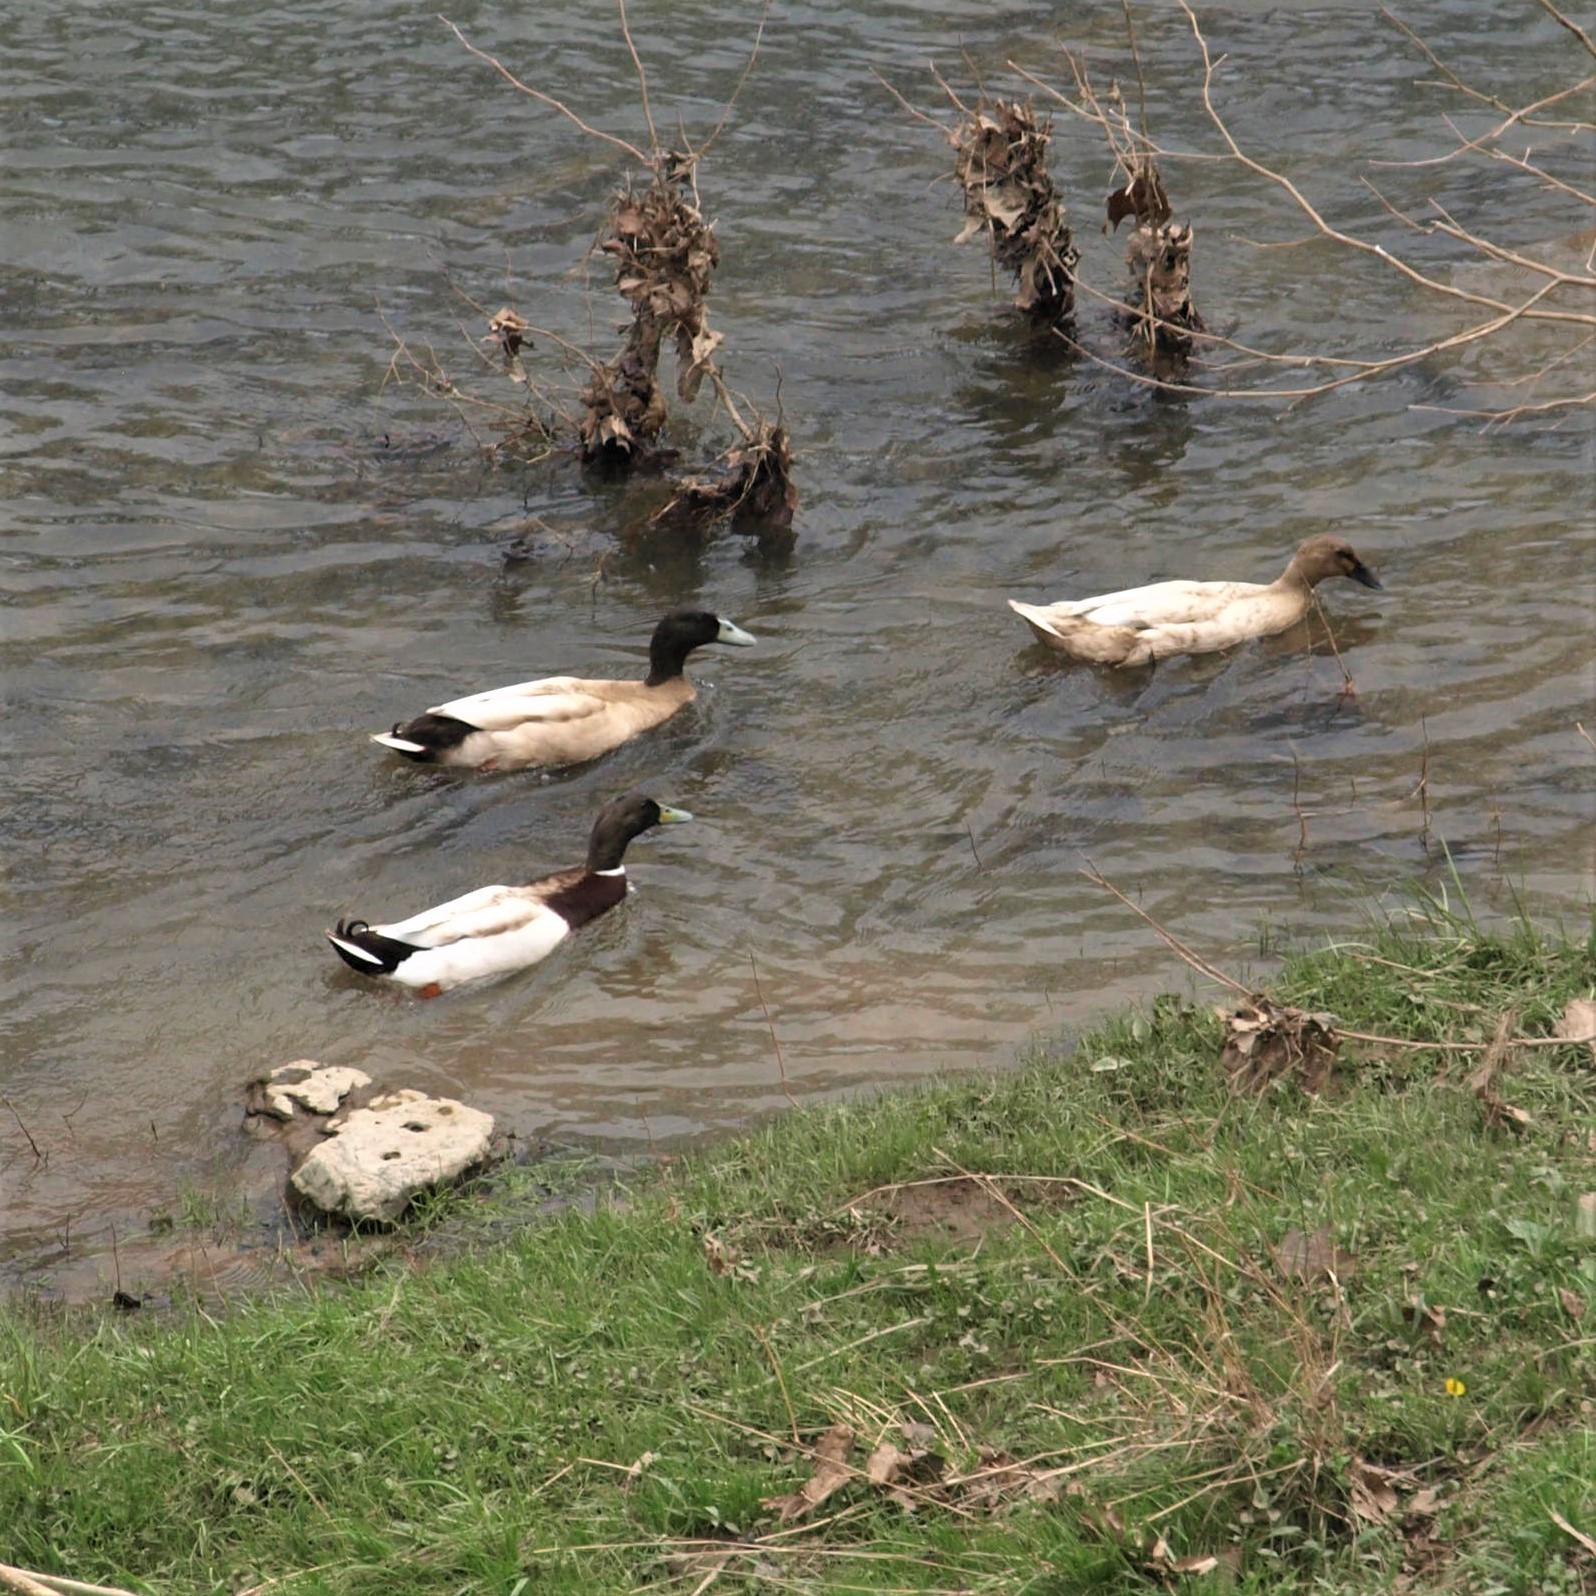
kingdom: Animalia
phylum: Chordata
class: Aves
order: Anseriformes
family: Anatidae
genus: Anas
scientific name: Anas platyrhynchos
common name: Mallard
